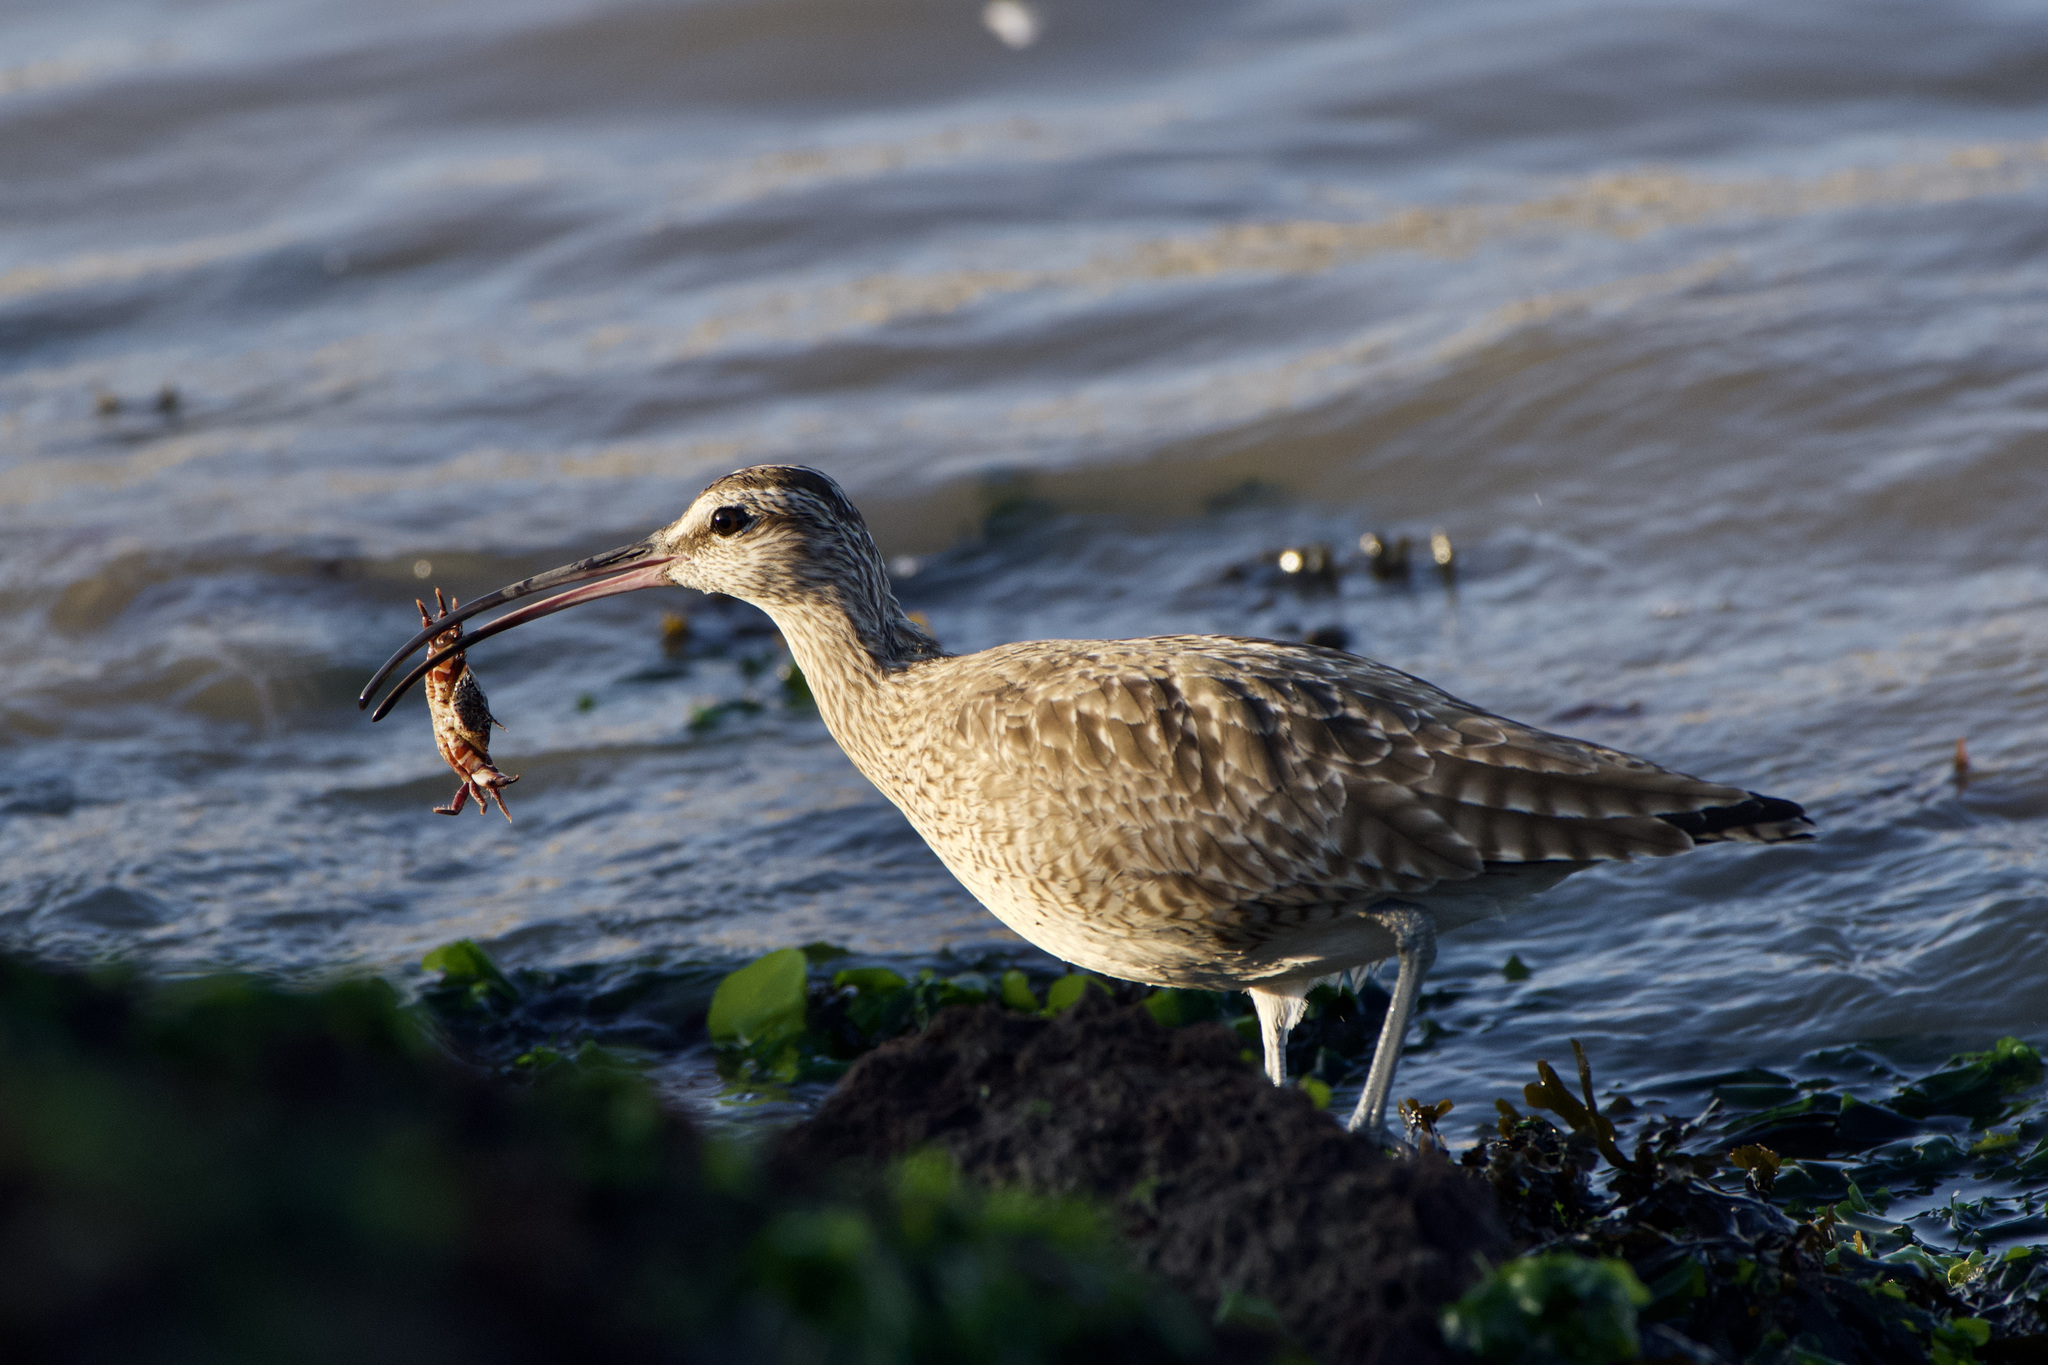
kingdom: Animalia
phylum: Chordata
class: Aves
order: Charadriiformes
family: Scolopacidae
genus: Numenius
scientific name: Numenius phaeopus
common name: Whimbrel
